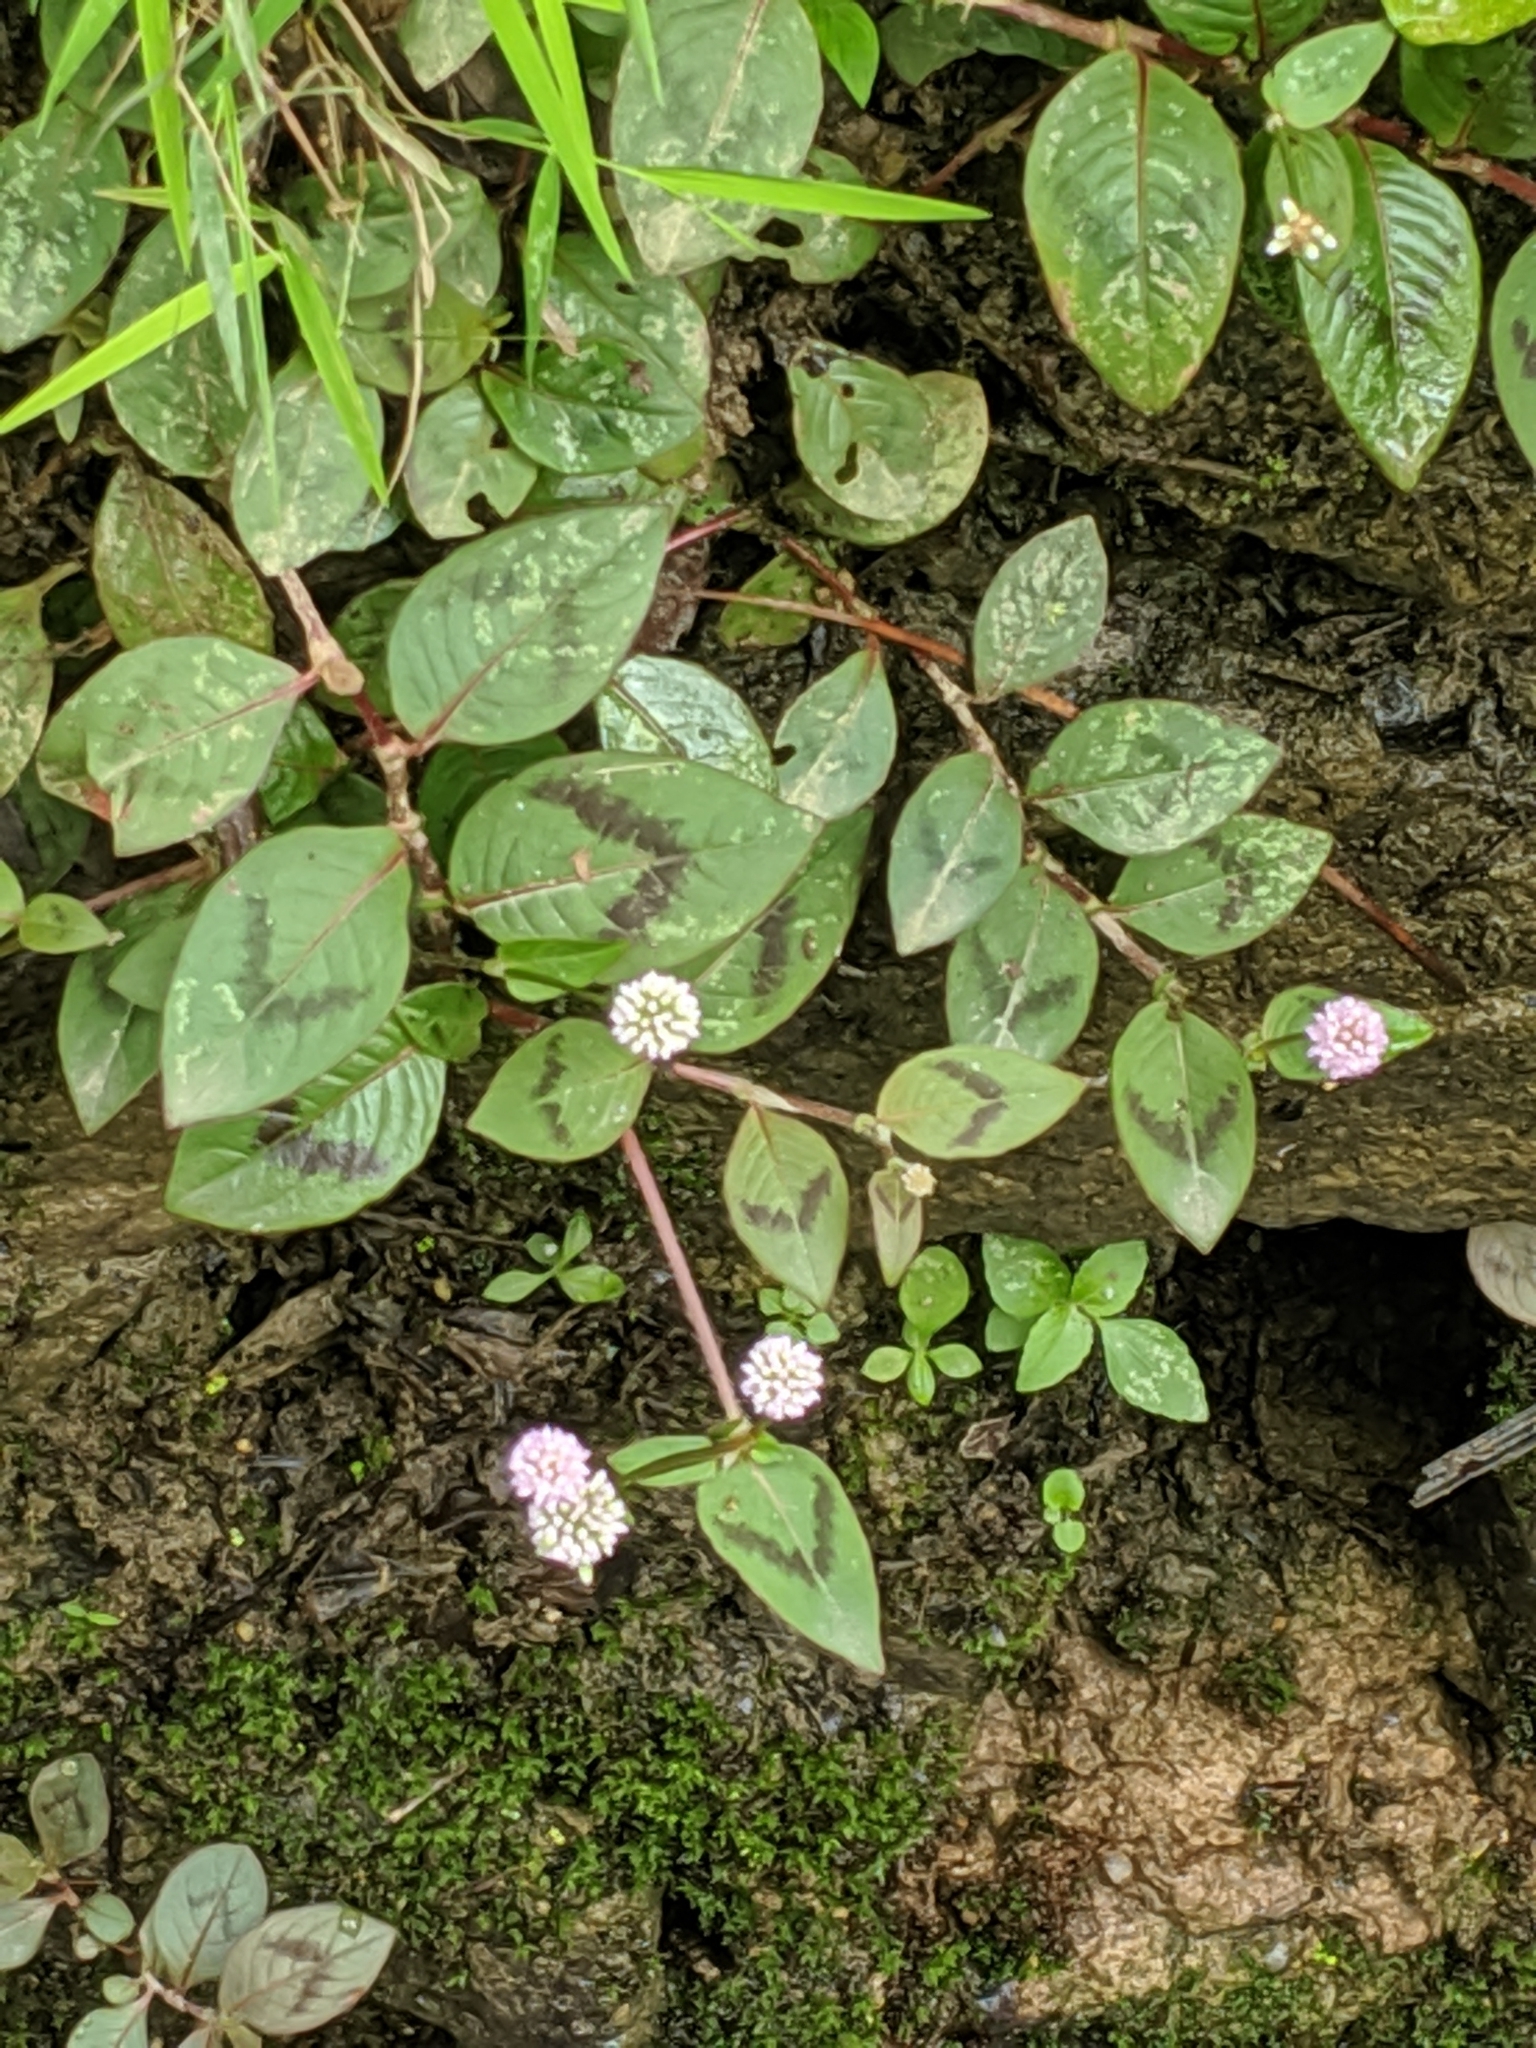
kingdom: Plantae
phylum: Tracheophyta
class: Magnoliopsida
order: Caryophyllales
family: Polygonaceae
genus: Persicaria
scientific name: Persicaria capitata
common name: Pinkhead smartweed
